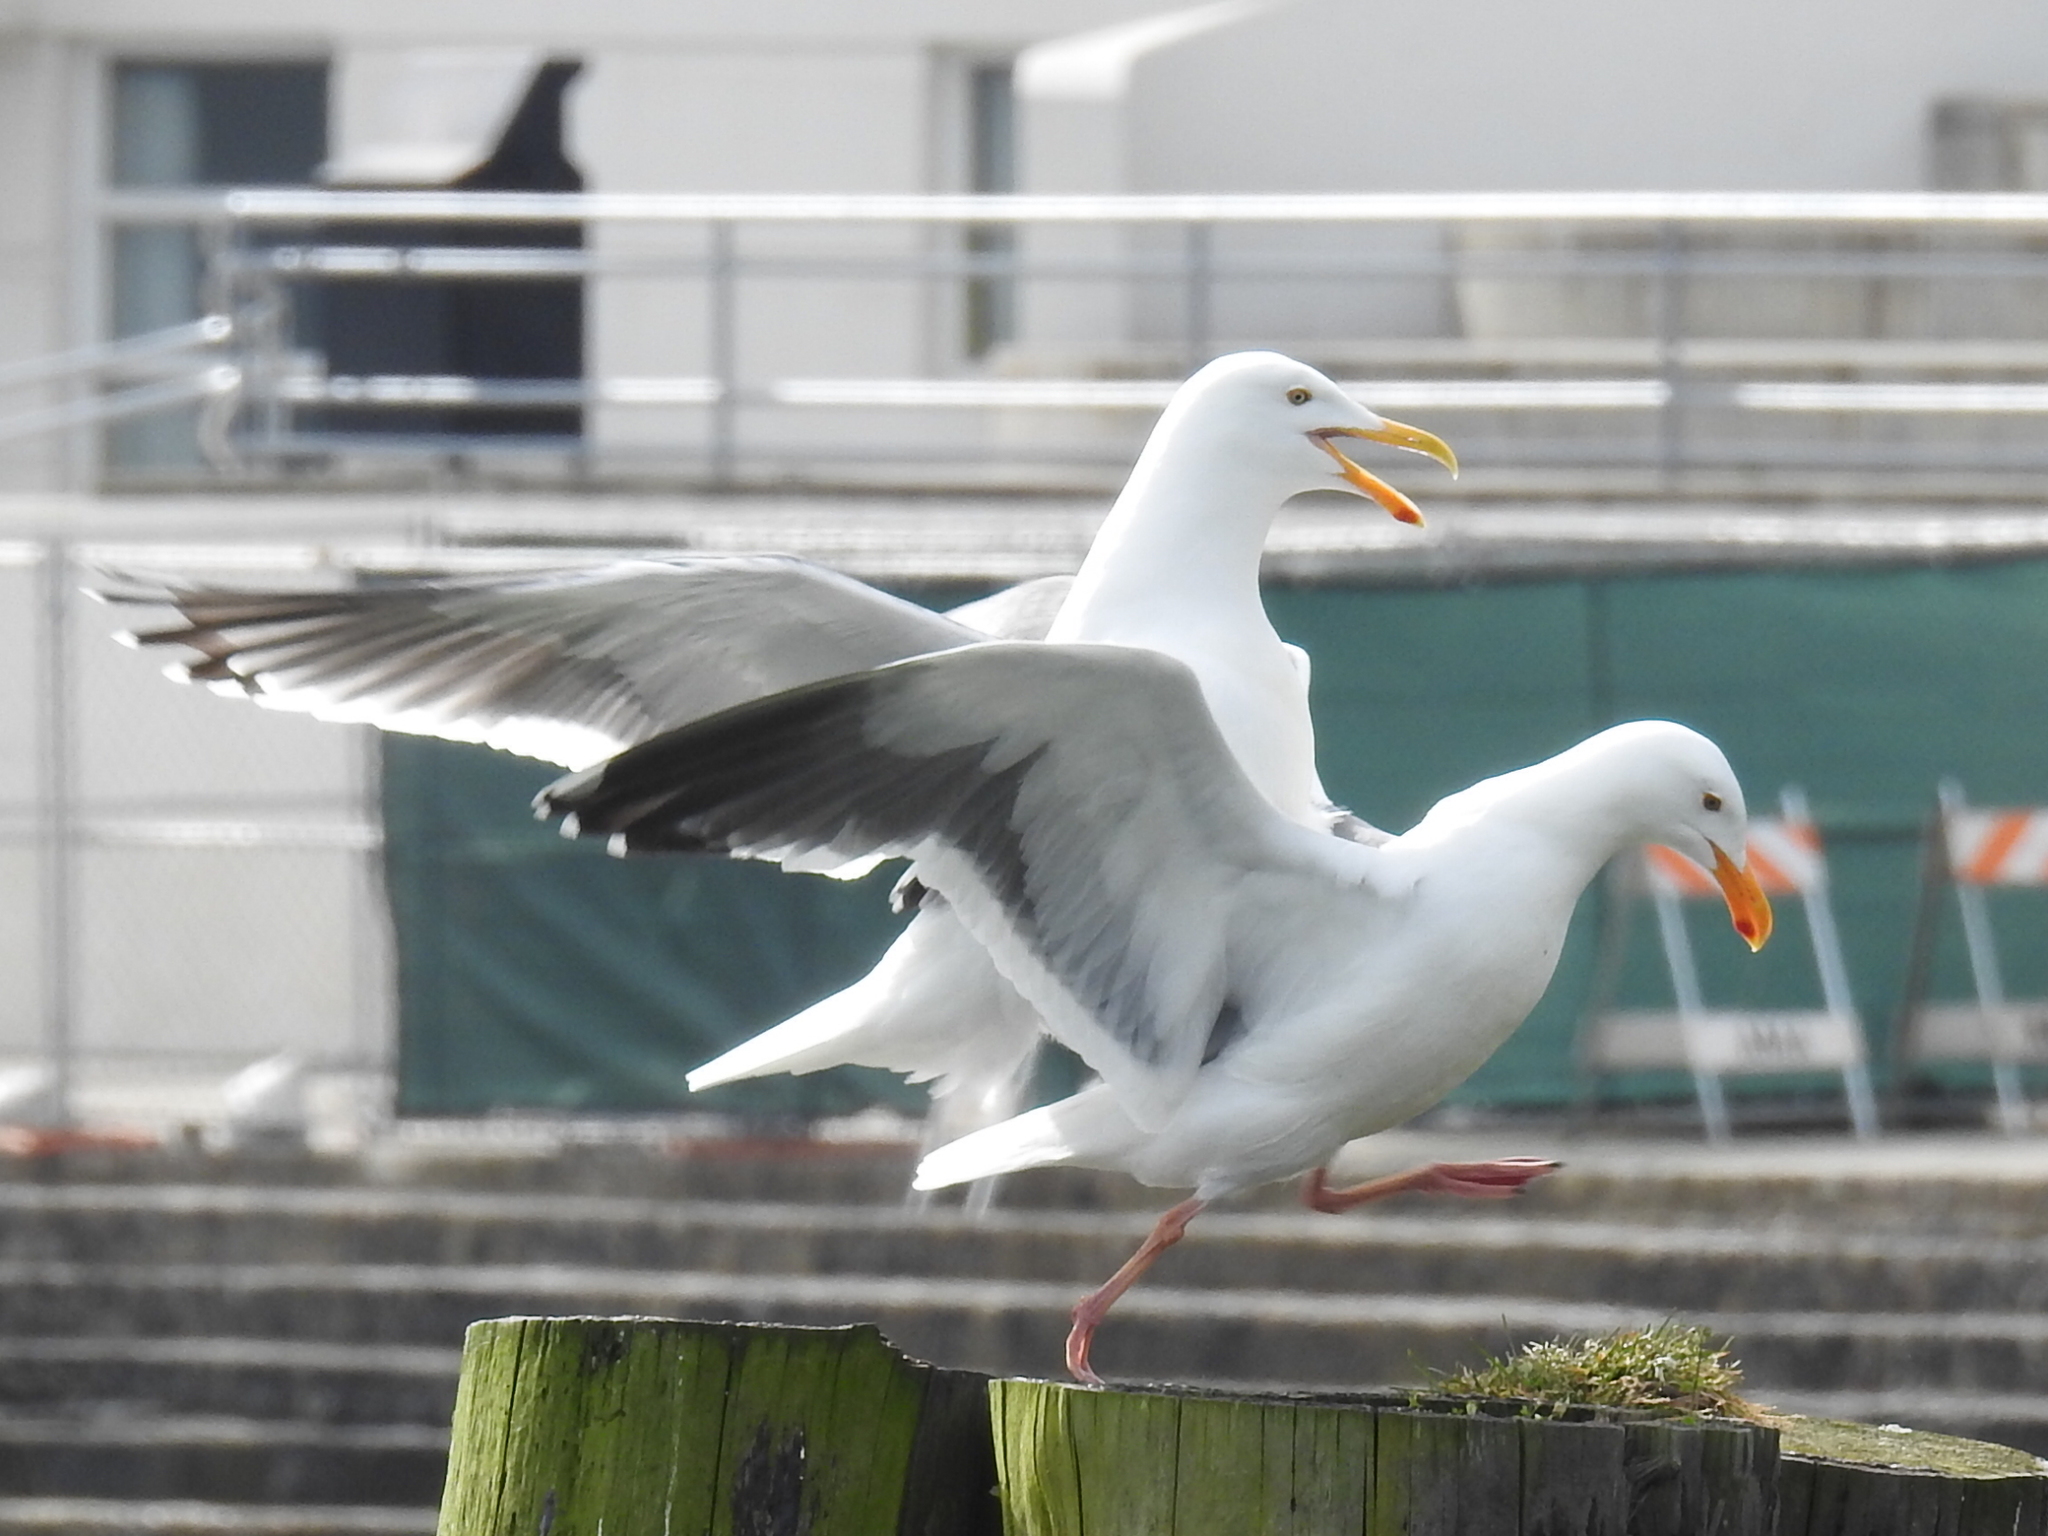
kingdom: Animalia
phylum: Chordata
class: Aves
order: Charadriiformes
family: Laridae
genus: Larus
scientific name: Larus occidentalis
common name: Western gull
